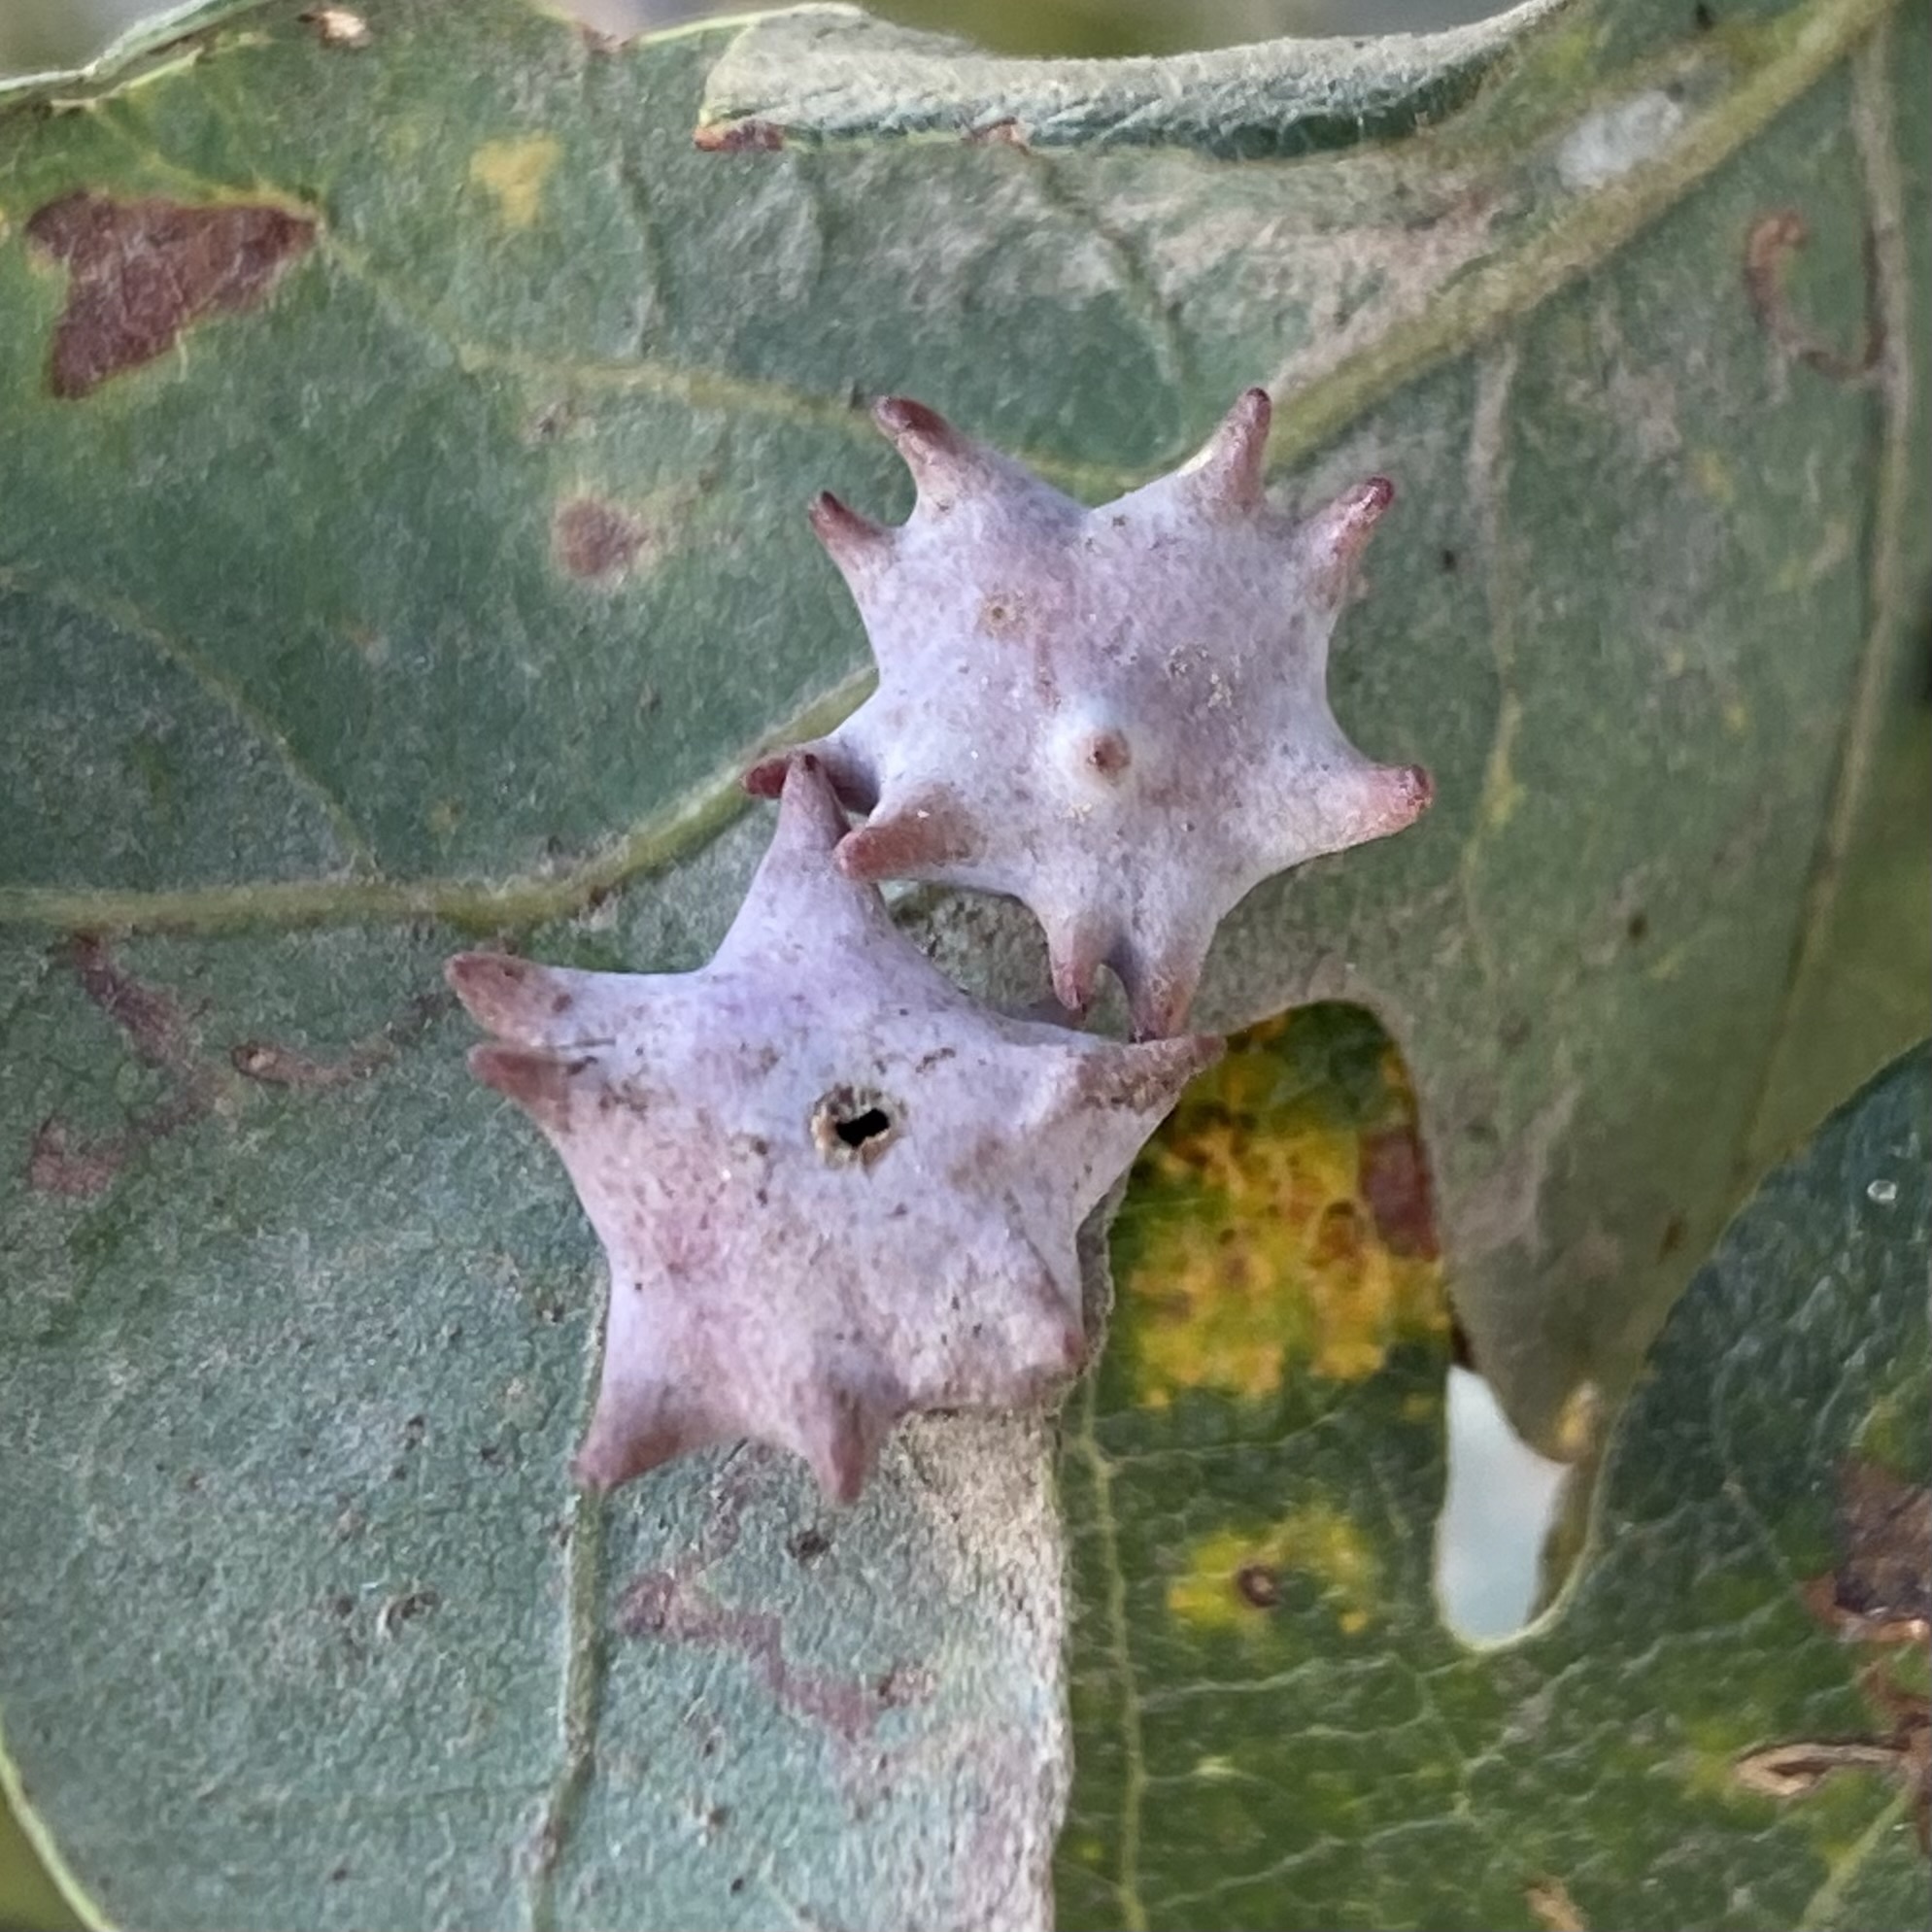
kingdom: Animalia
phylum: Arthropoda
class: Insecta
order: Hymenoptera
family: Cynipidae
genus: Cynips
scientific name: Cynips douglasi
